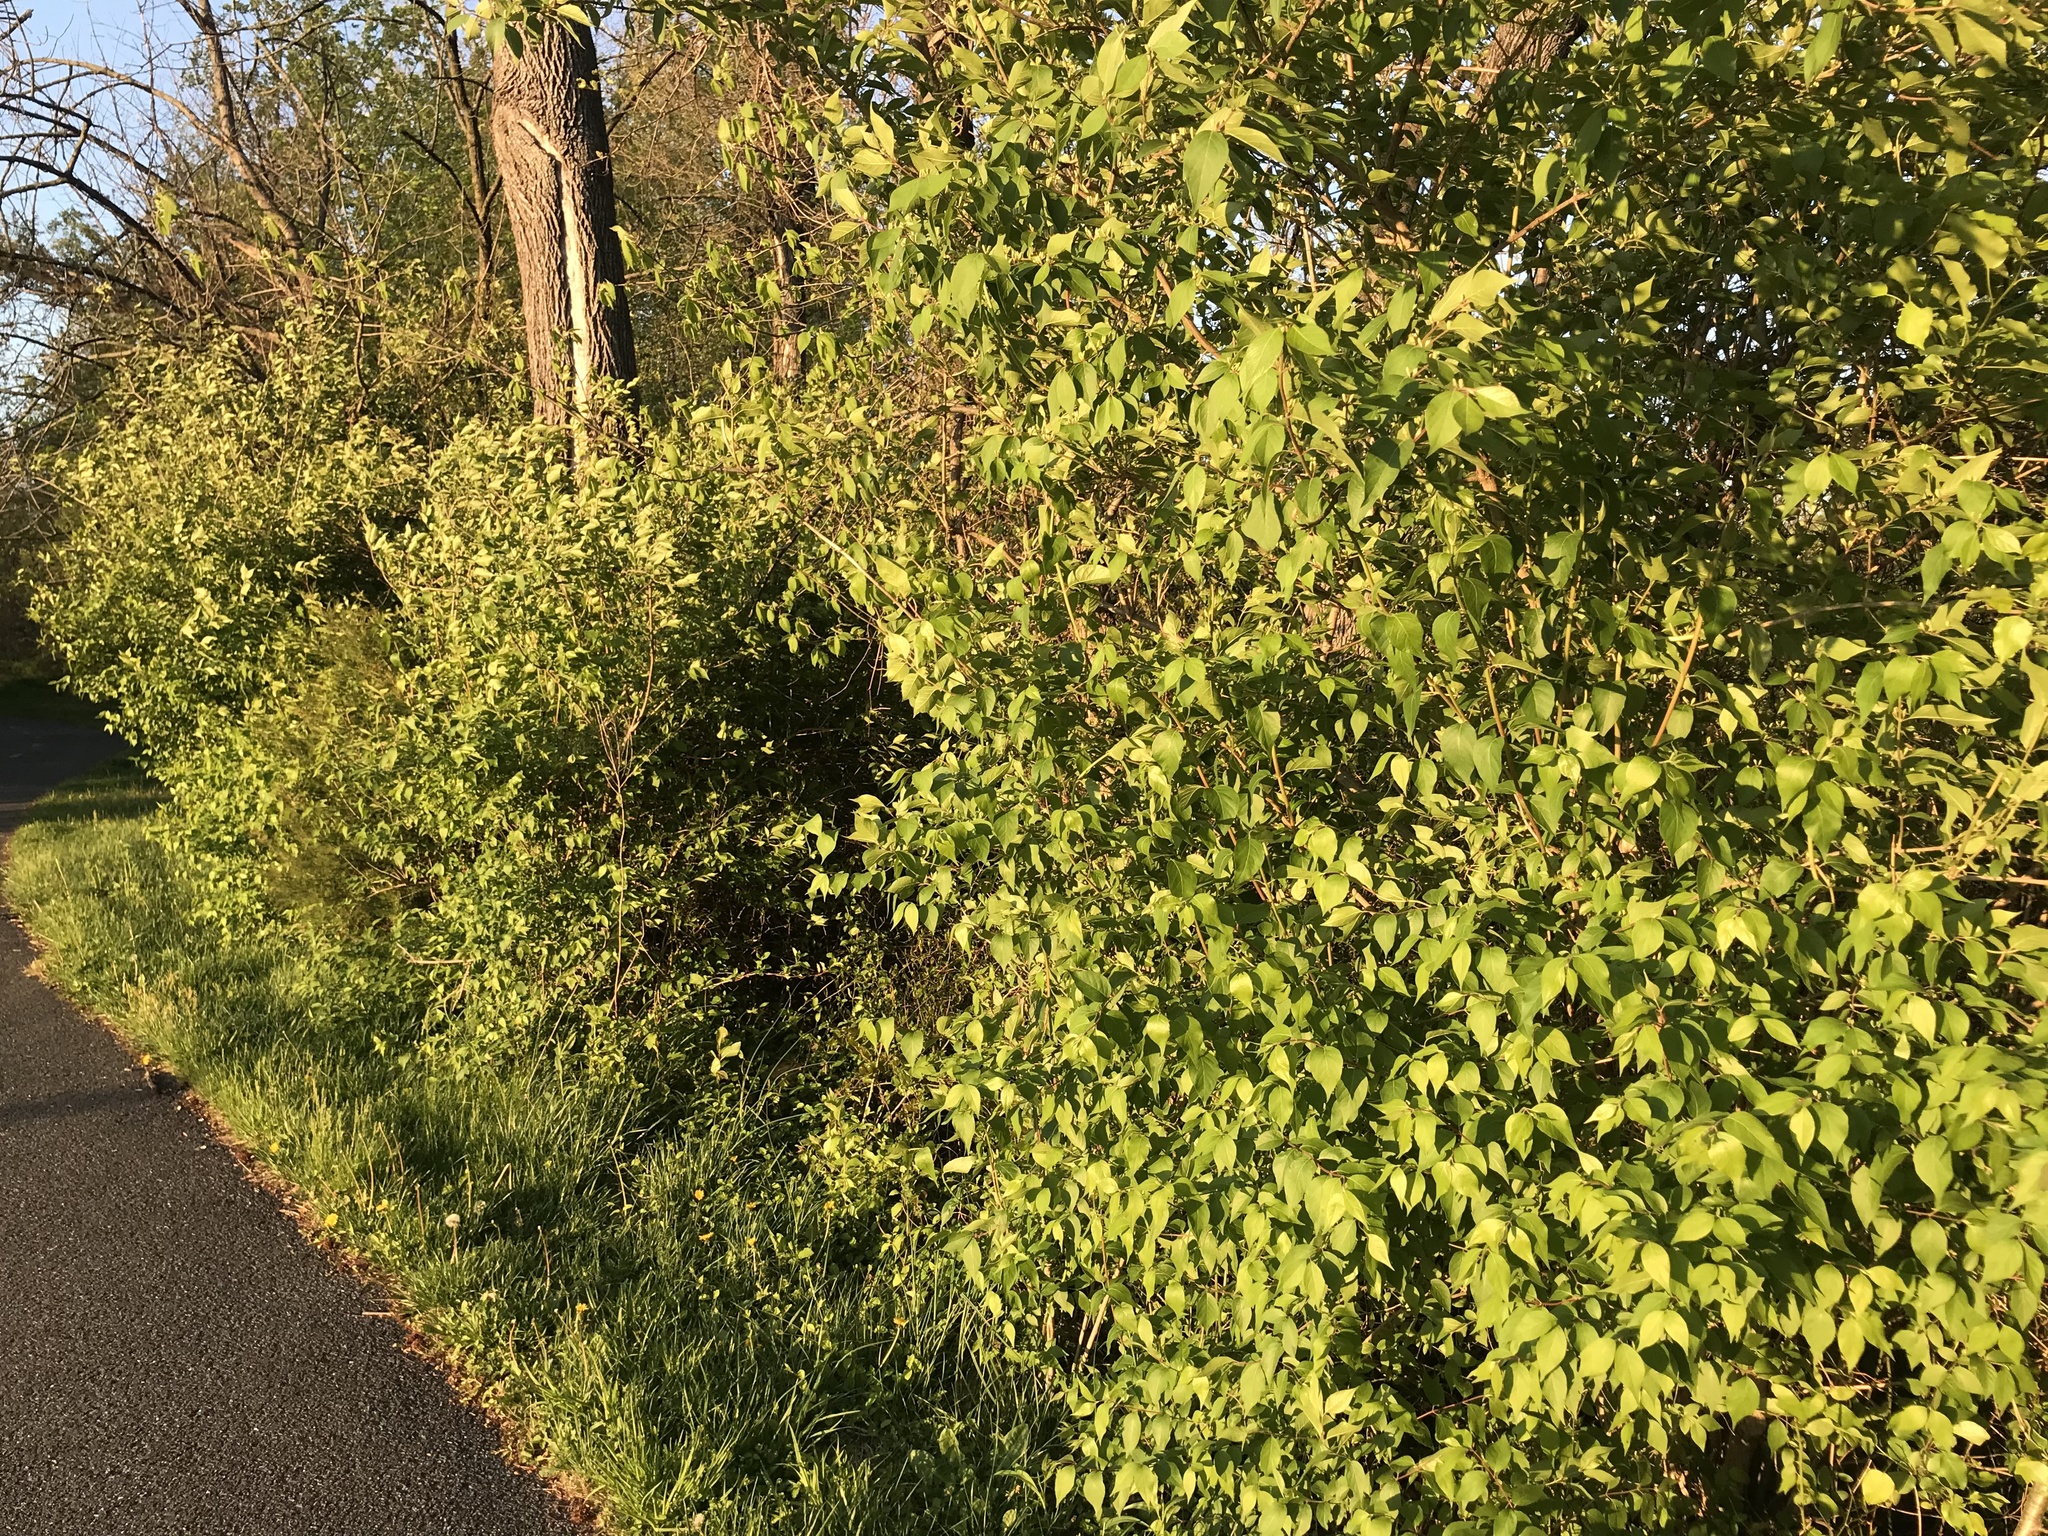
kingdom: Plantae
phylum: Tracheophyta
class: Magnoliopsida
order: Dipsacales
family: Caprifoliaceae
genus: Lonicera
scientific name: Lonicera maackii
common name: Amur honeysuckle
